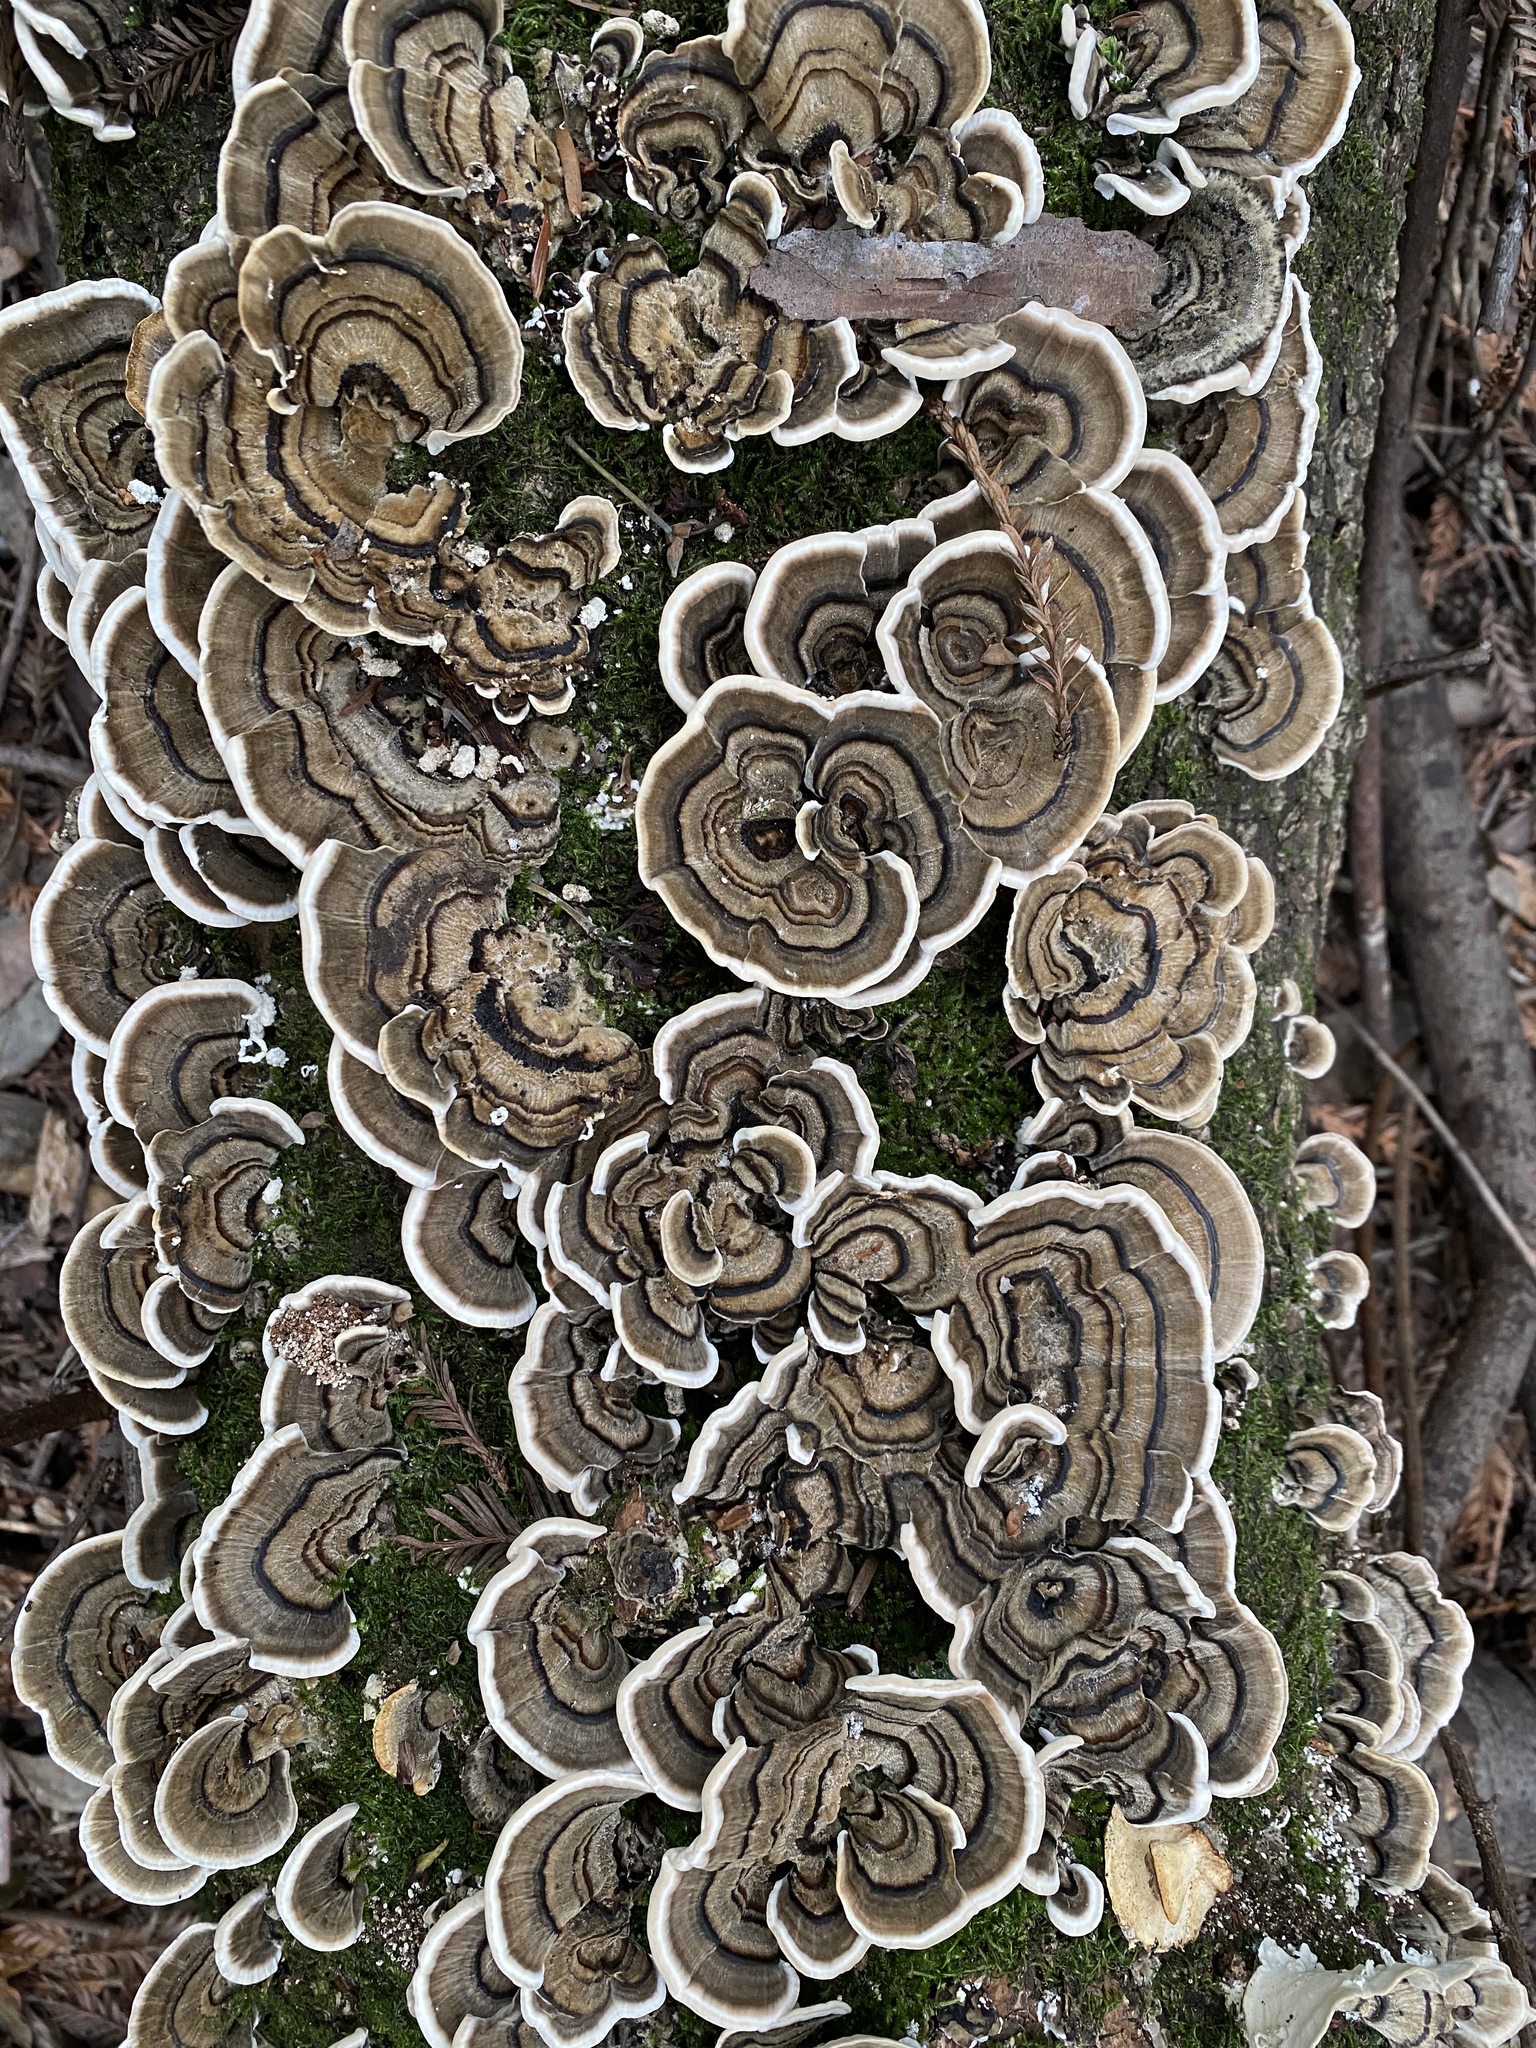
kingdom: Fungi
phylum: Basidiomycota
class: Agaricomycetes
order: Polyporales
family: Polyporaceae
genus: Trametes
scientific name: Trametes versicolor
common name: Turkeytail
